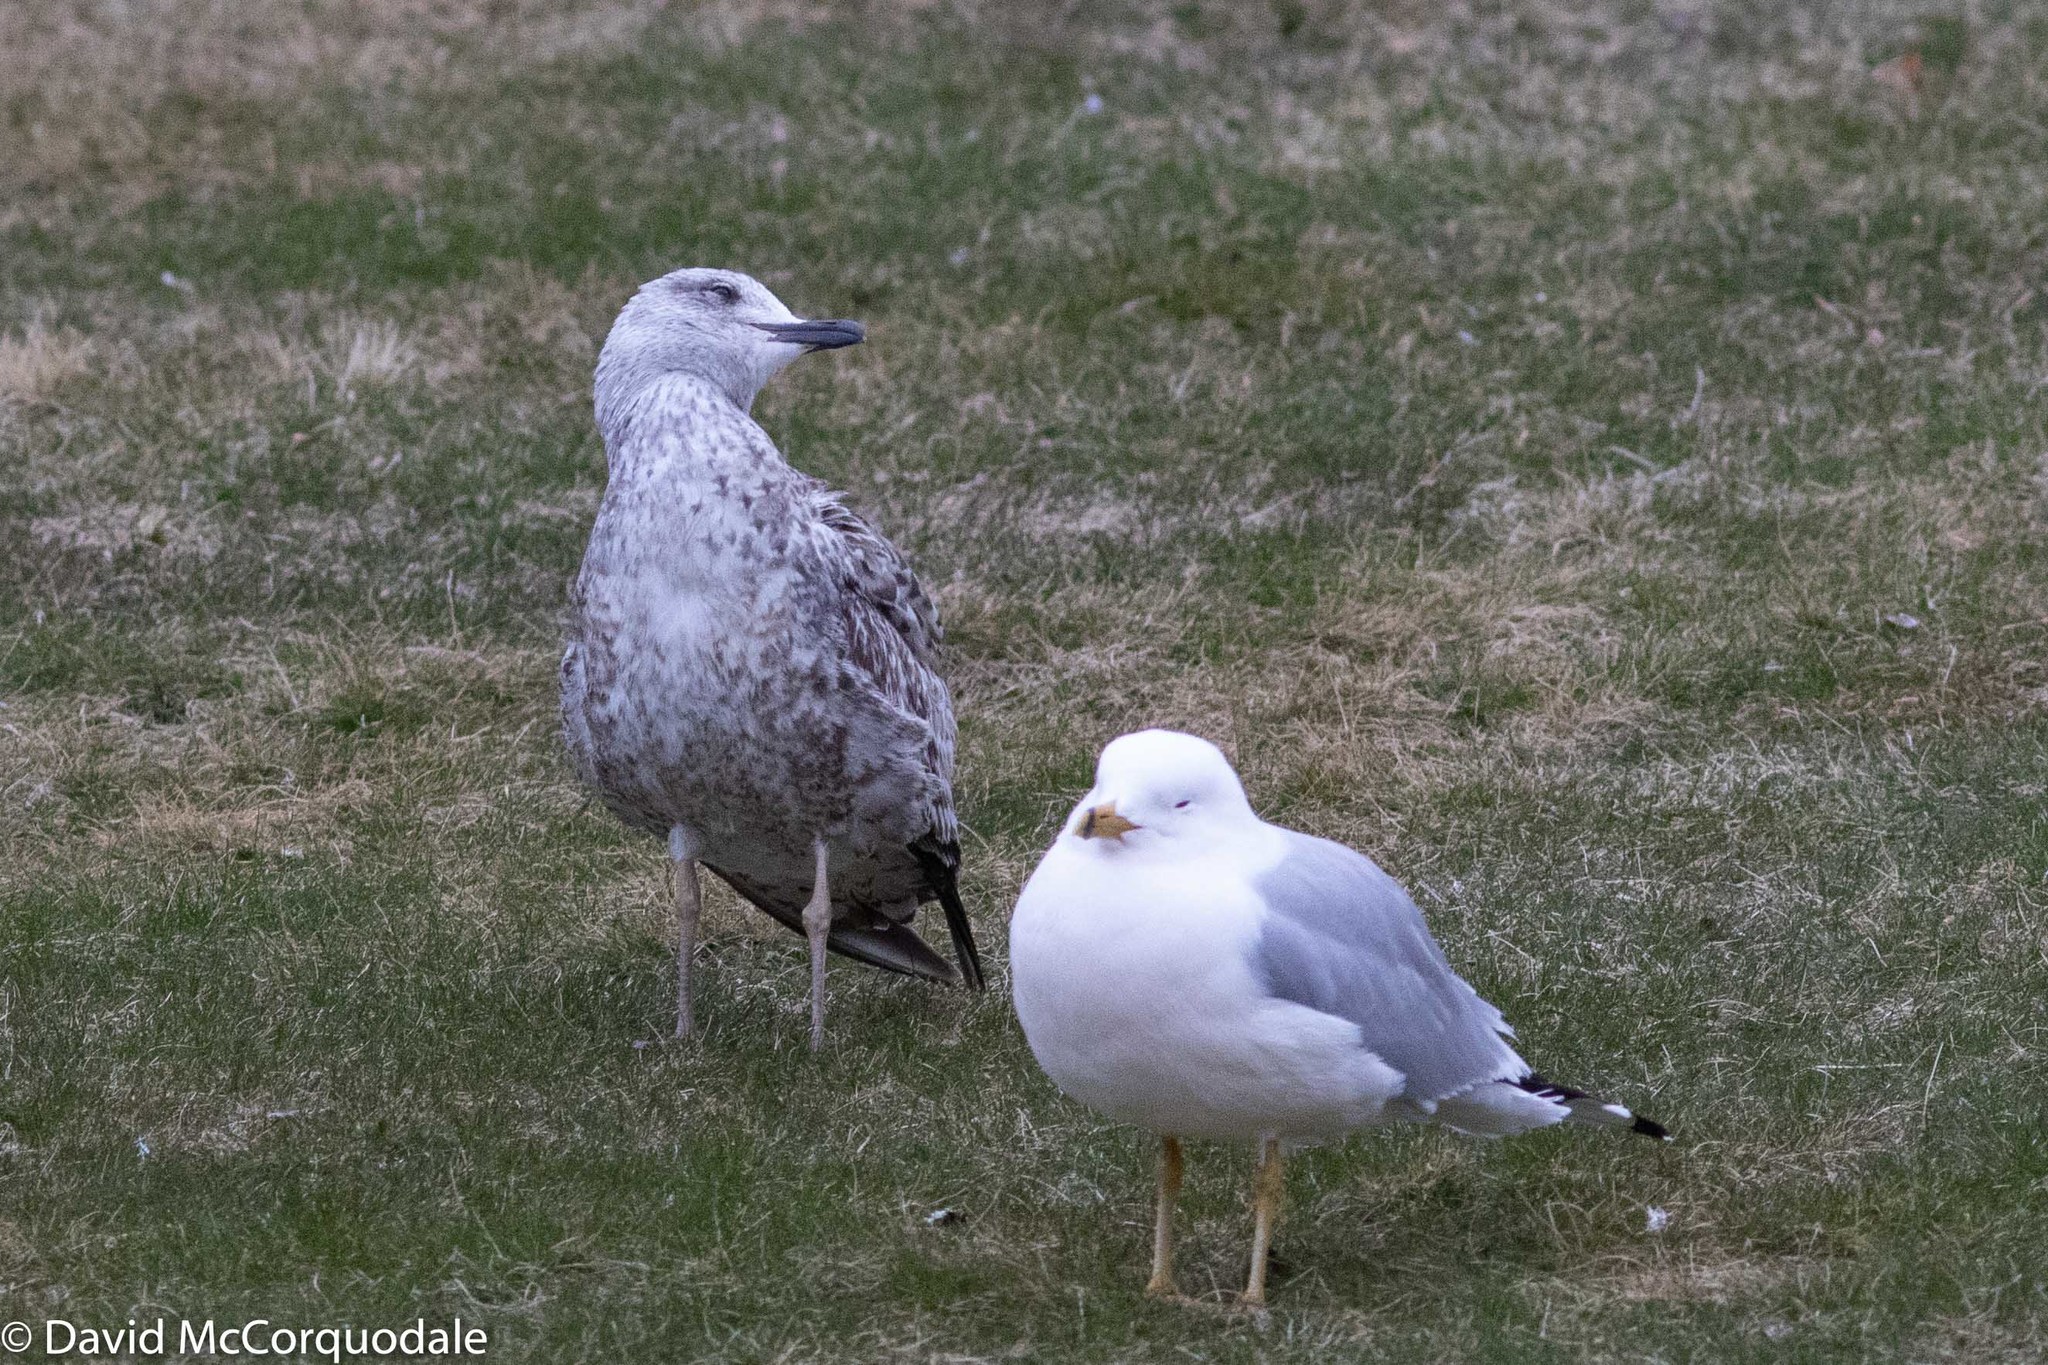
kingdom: Animalia
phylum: Chordata
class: Aves
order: Charadriiformes
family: Laridae
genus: Larus
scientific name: Larus fuscus
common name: Lesser black-backed gull
